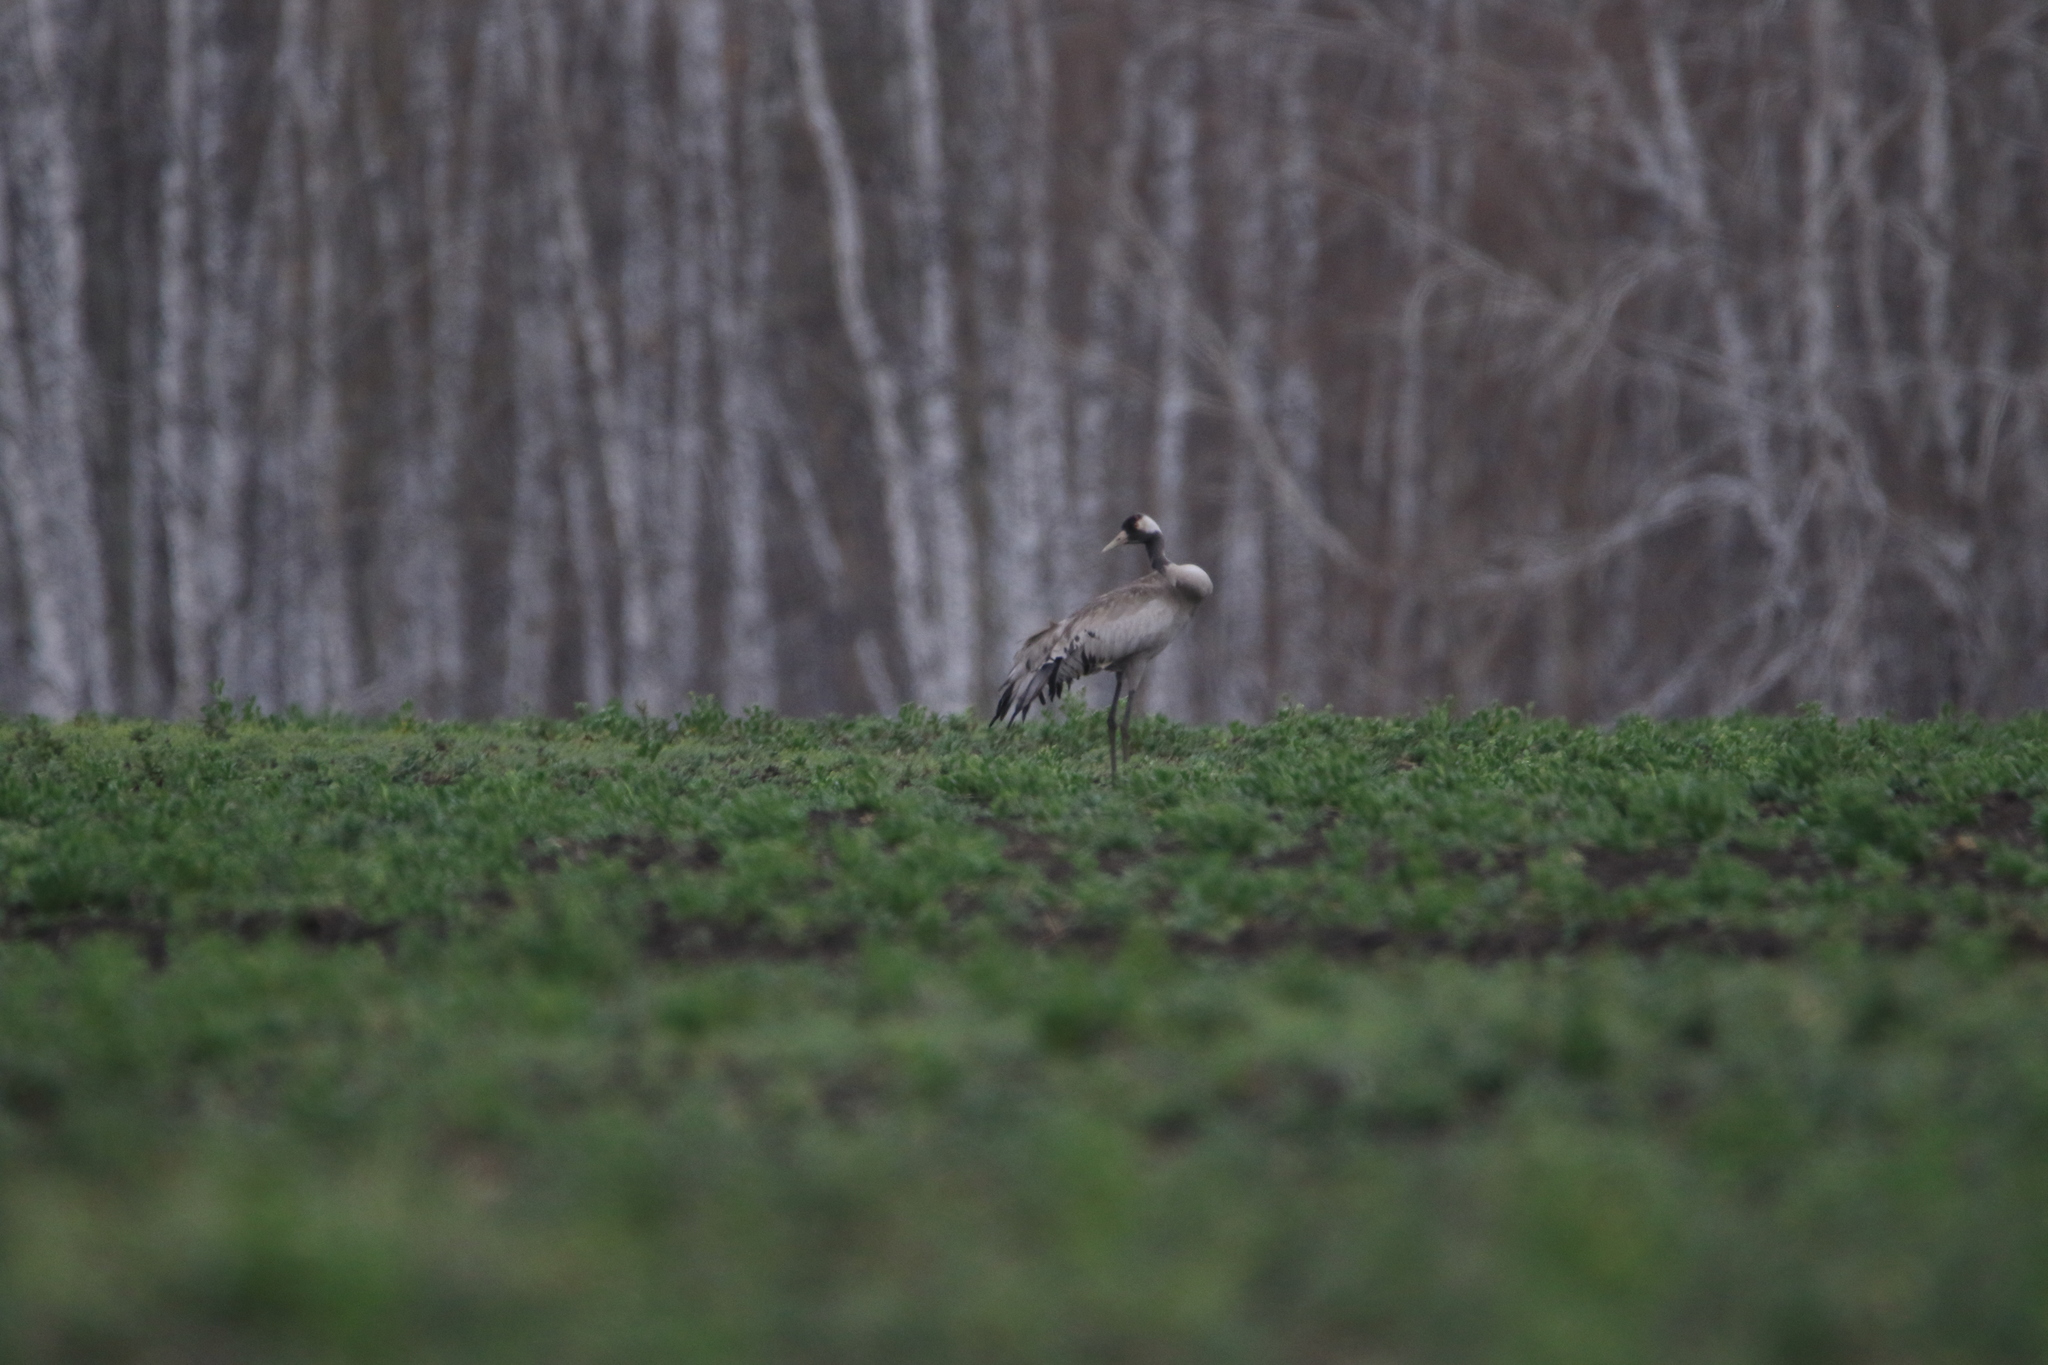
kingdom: Animalia
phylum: Chordata
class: Aves
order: Gruiformes
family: Gruidae
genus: Grus
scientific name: Grus grus
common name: Common crane
